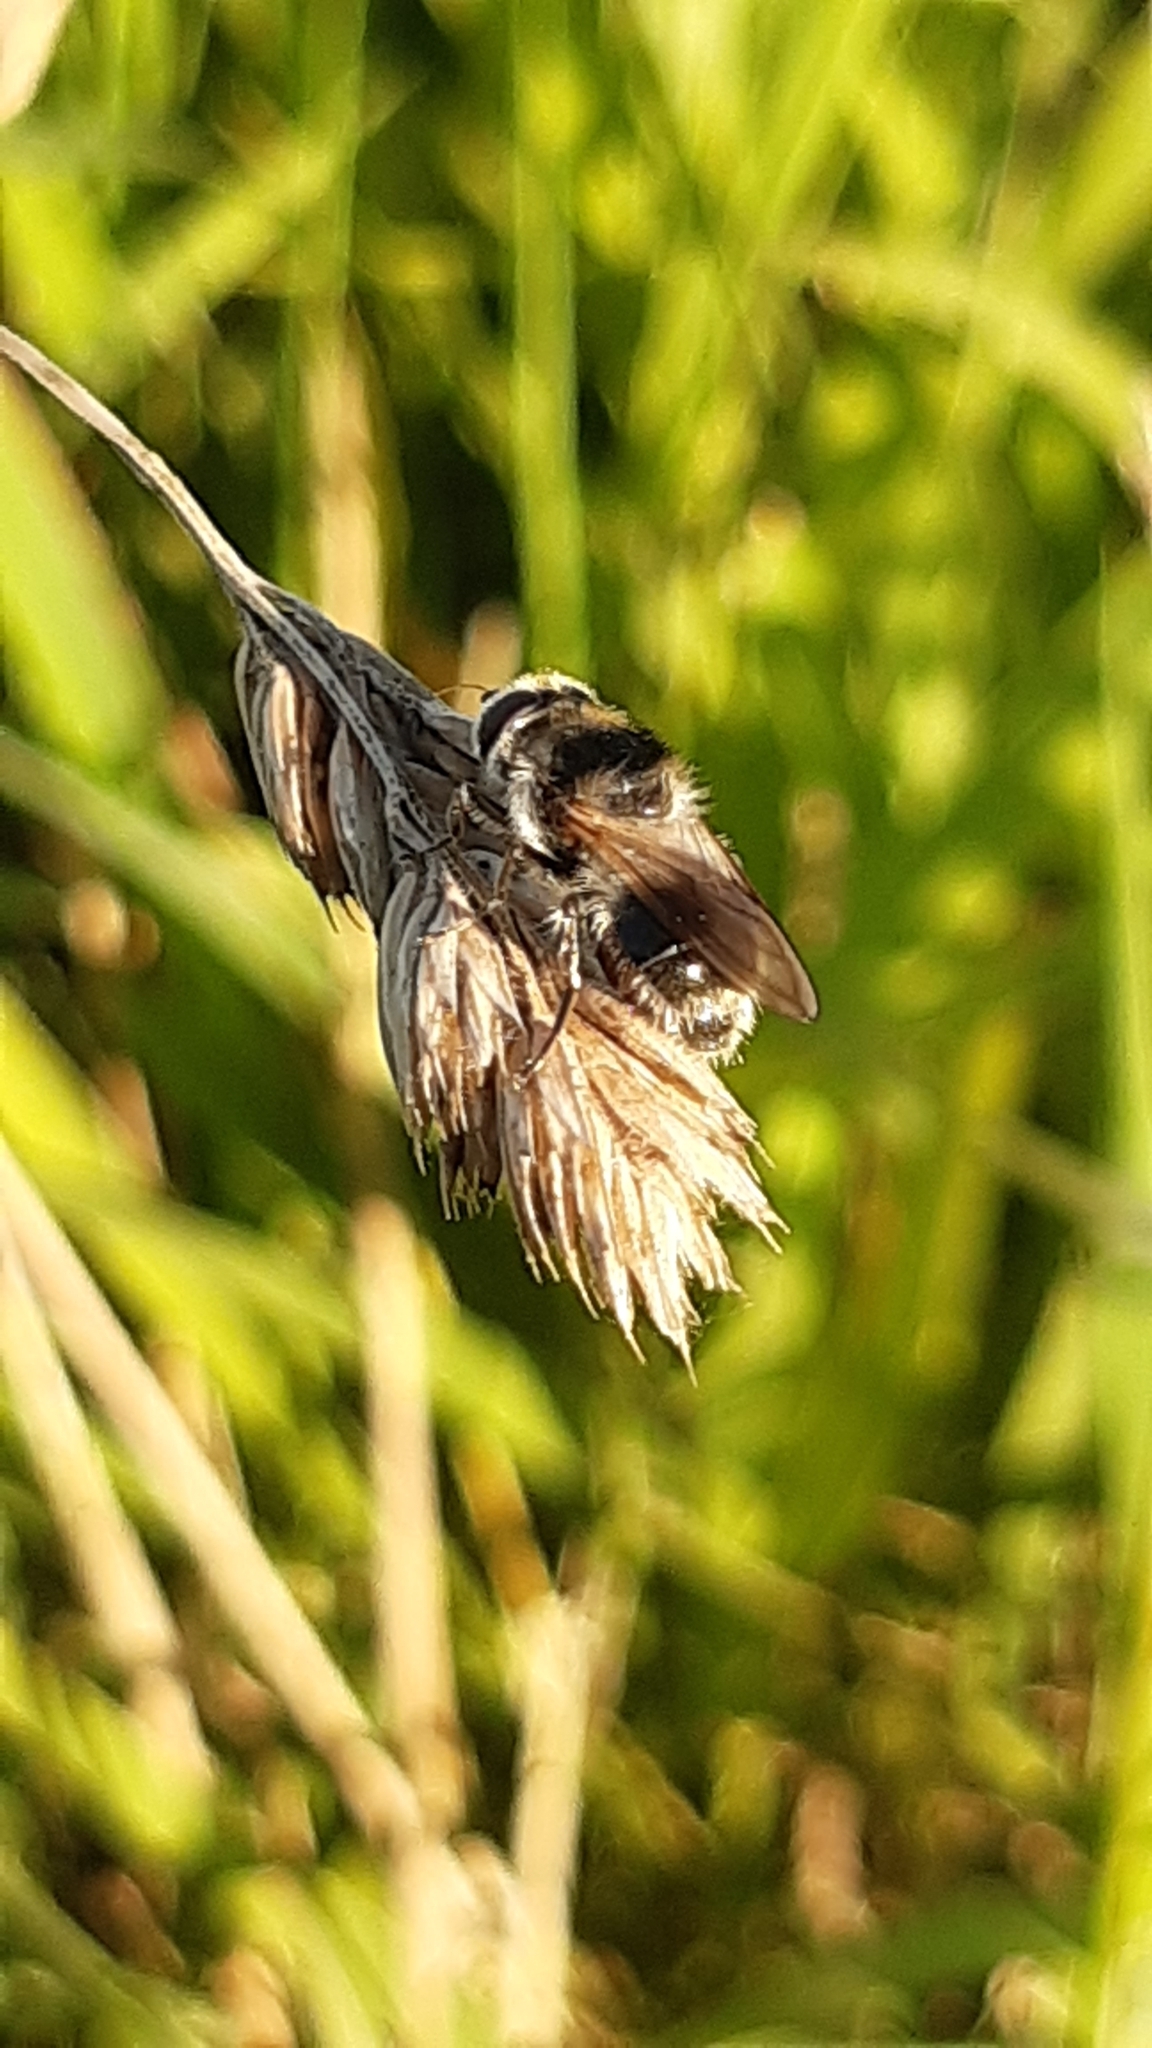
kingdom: Animalia
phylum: Arthropoda
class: Insecta
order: Diptera
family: Syrphidae
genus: Cheilosia
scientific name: Cheilosia illustrata
